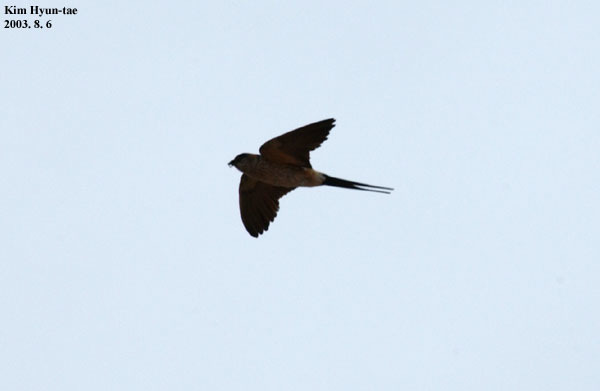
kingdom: Animalia
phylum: Chordata
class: Aves
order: Passeriformes
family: Hirundinidae
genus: Cecropis
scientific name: Cecropis daurica
